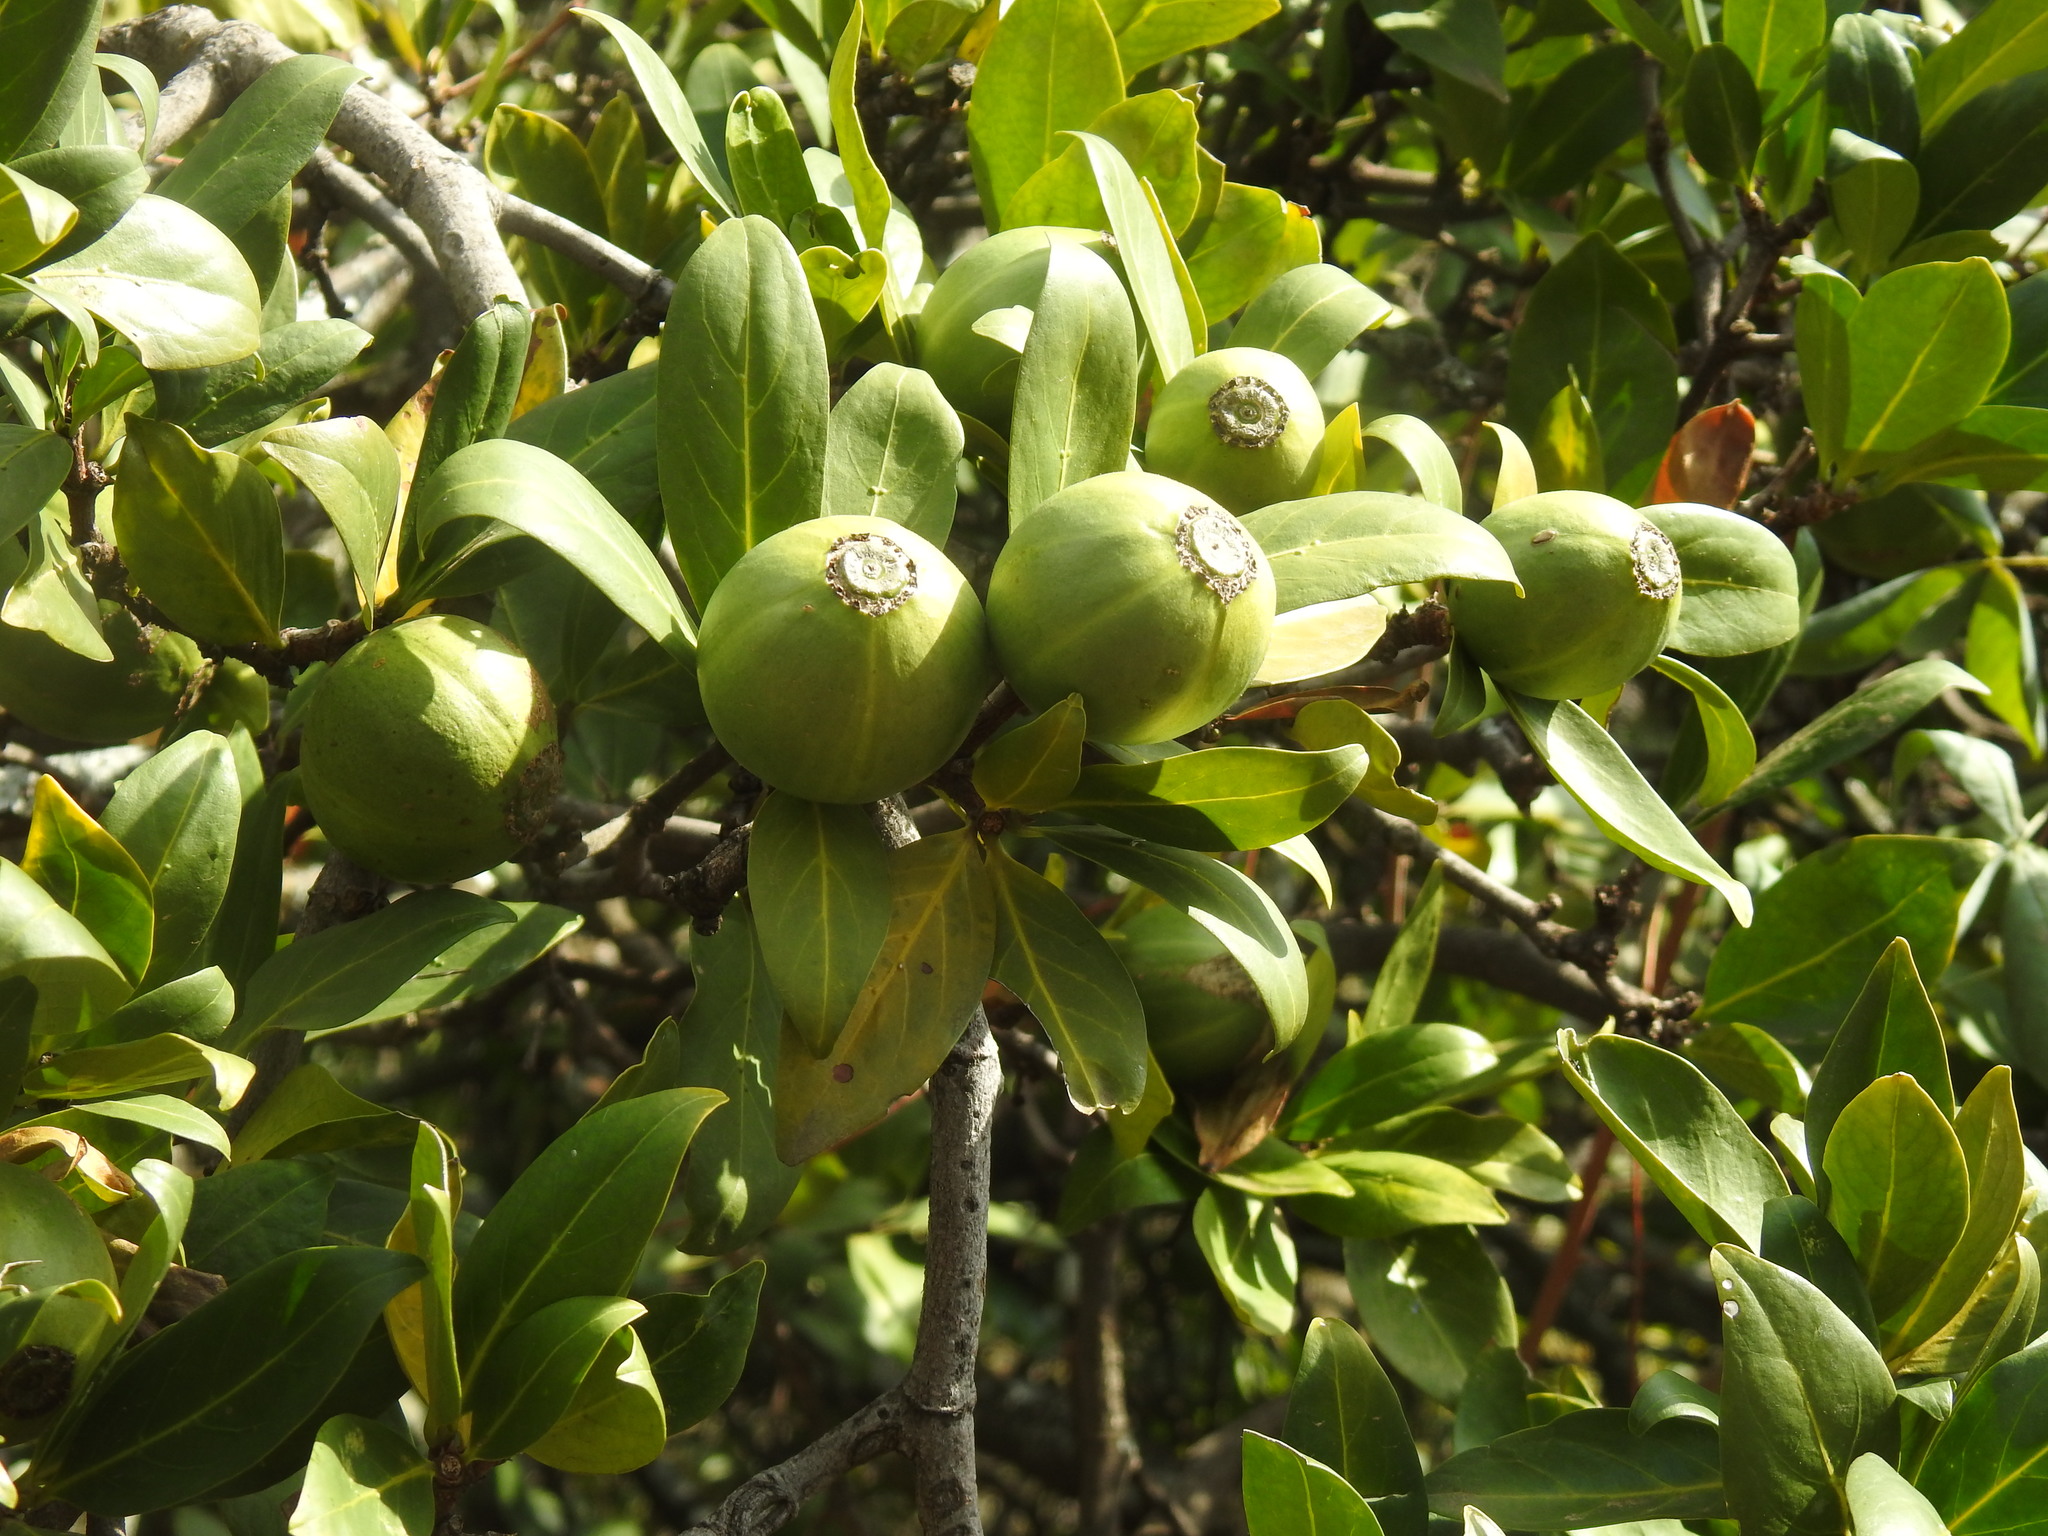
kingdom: Plantae
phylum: Tracheophyta
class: Magnoliopsida
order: Gentianales
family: Rubiaceae
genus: Rothmannia
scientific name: Rothmannia capensis
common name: Cape gardenia
